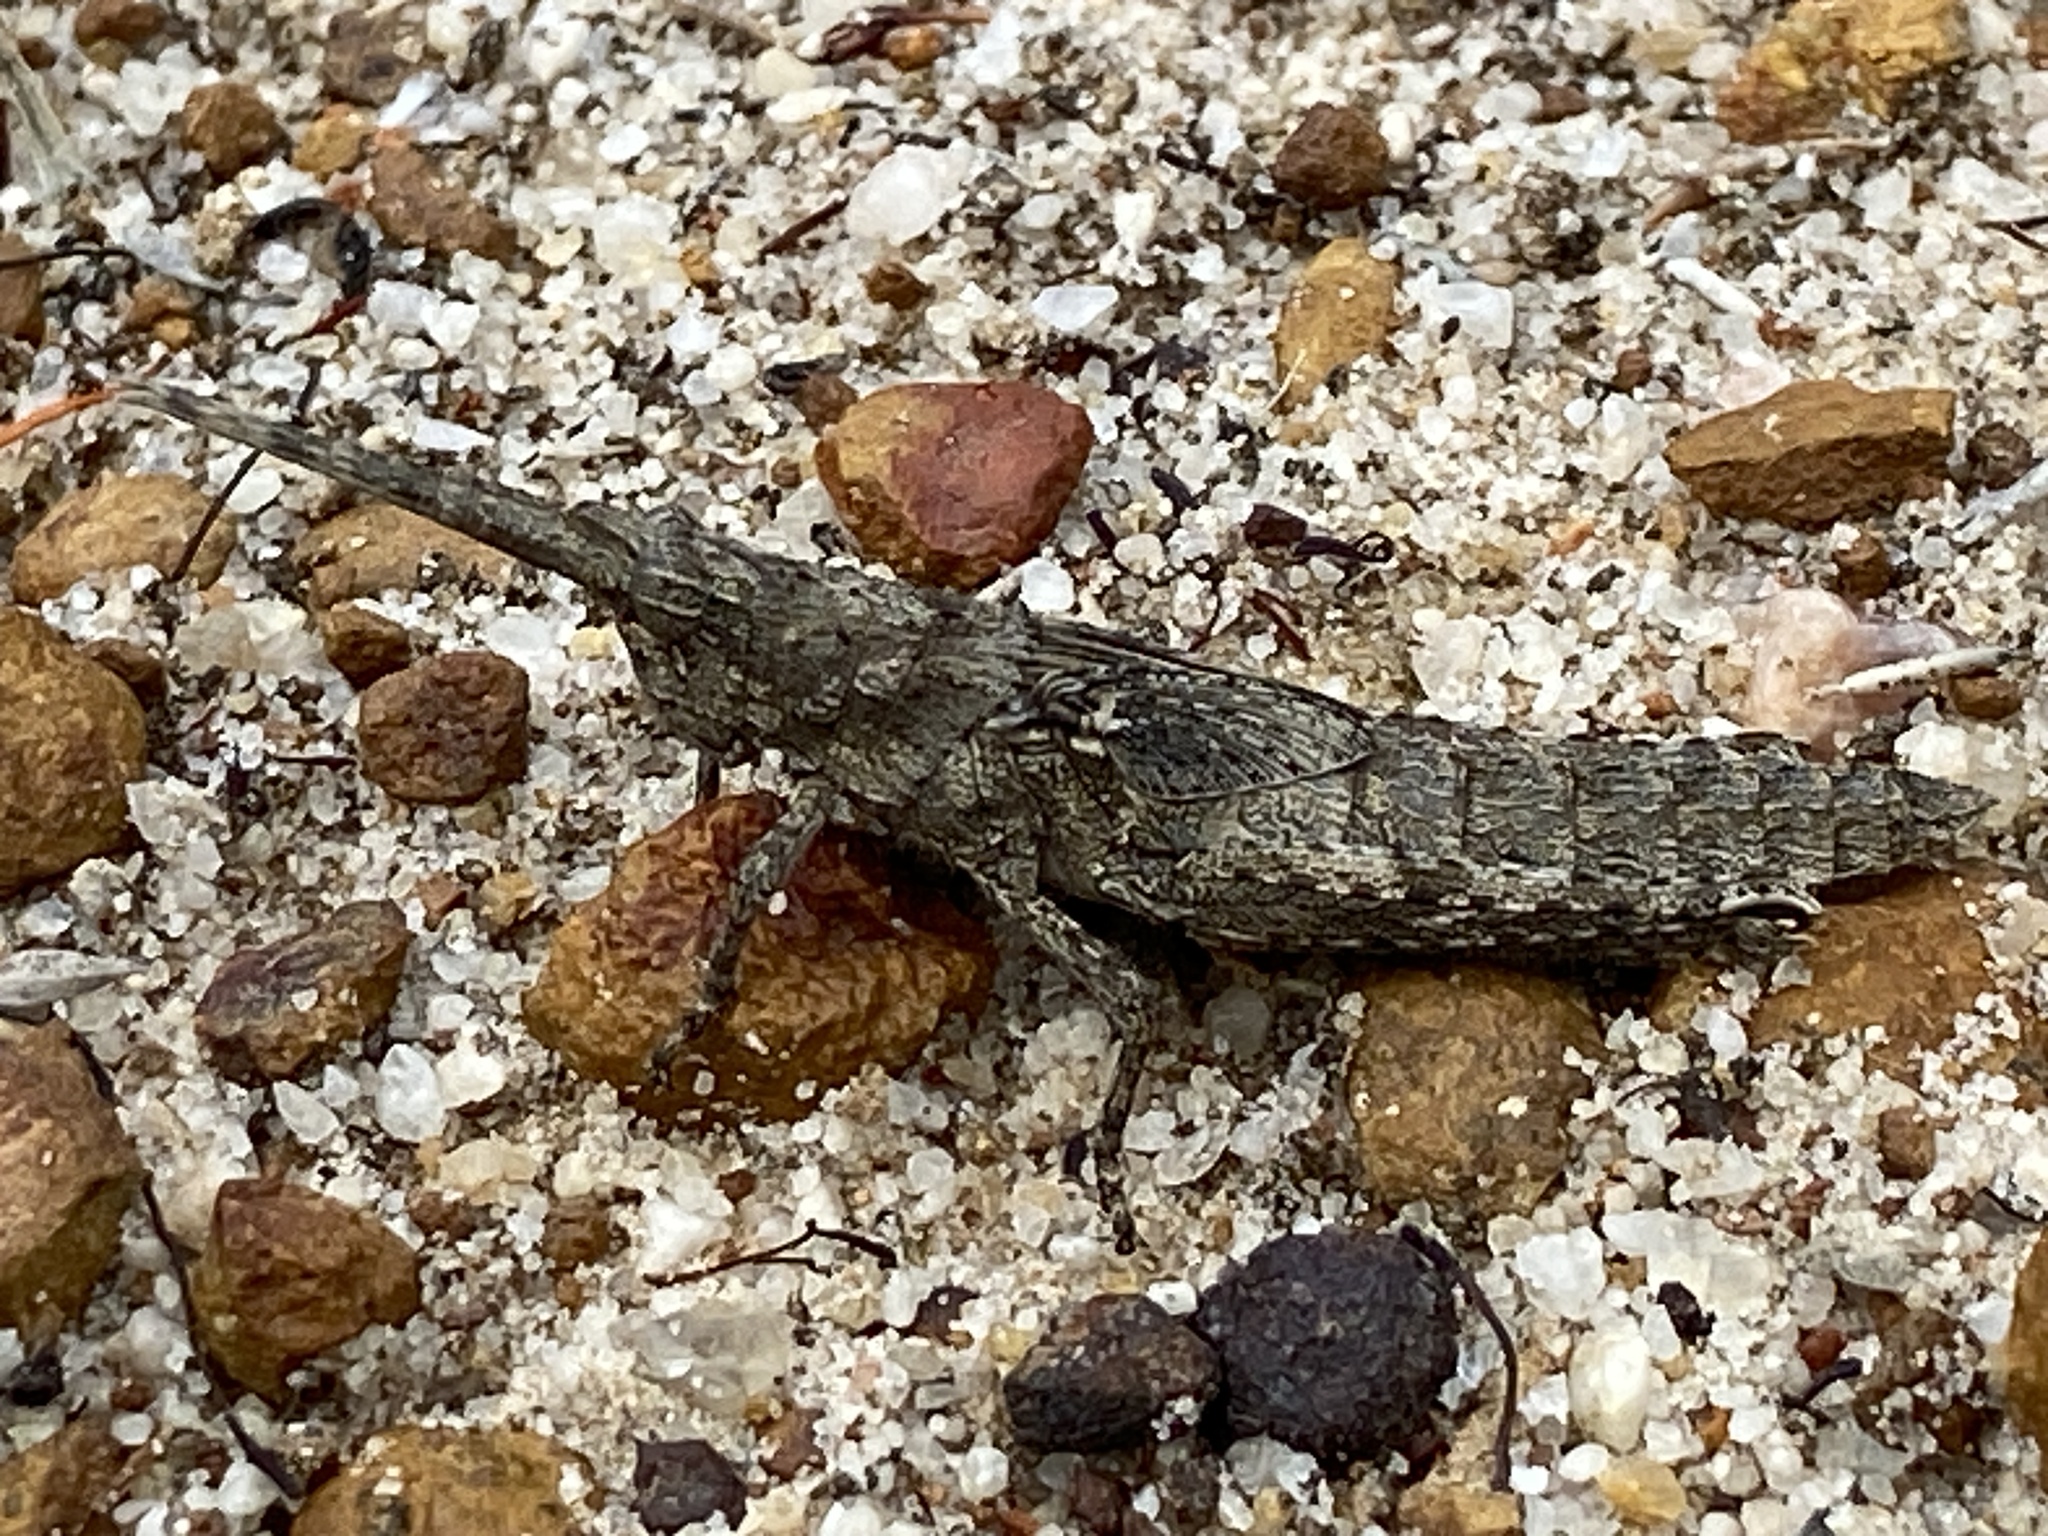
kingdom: Animalia
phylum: Arthropoda
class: Insecta
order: Orthoptera
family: Acrididae
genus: Coryphistes
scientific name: Coryphistes ruricola
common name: Bark-mimicking grasshopper
